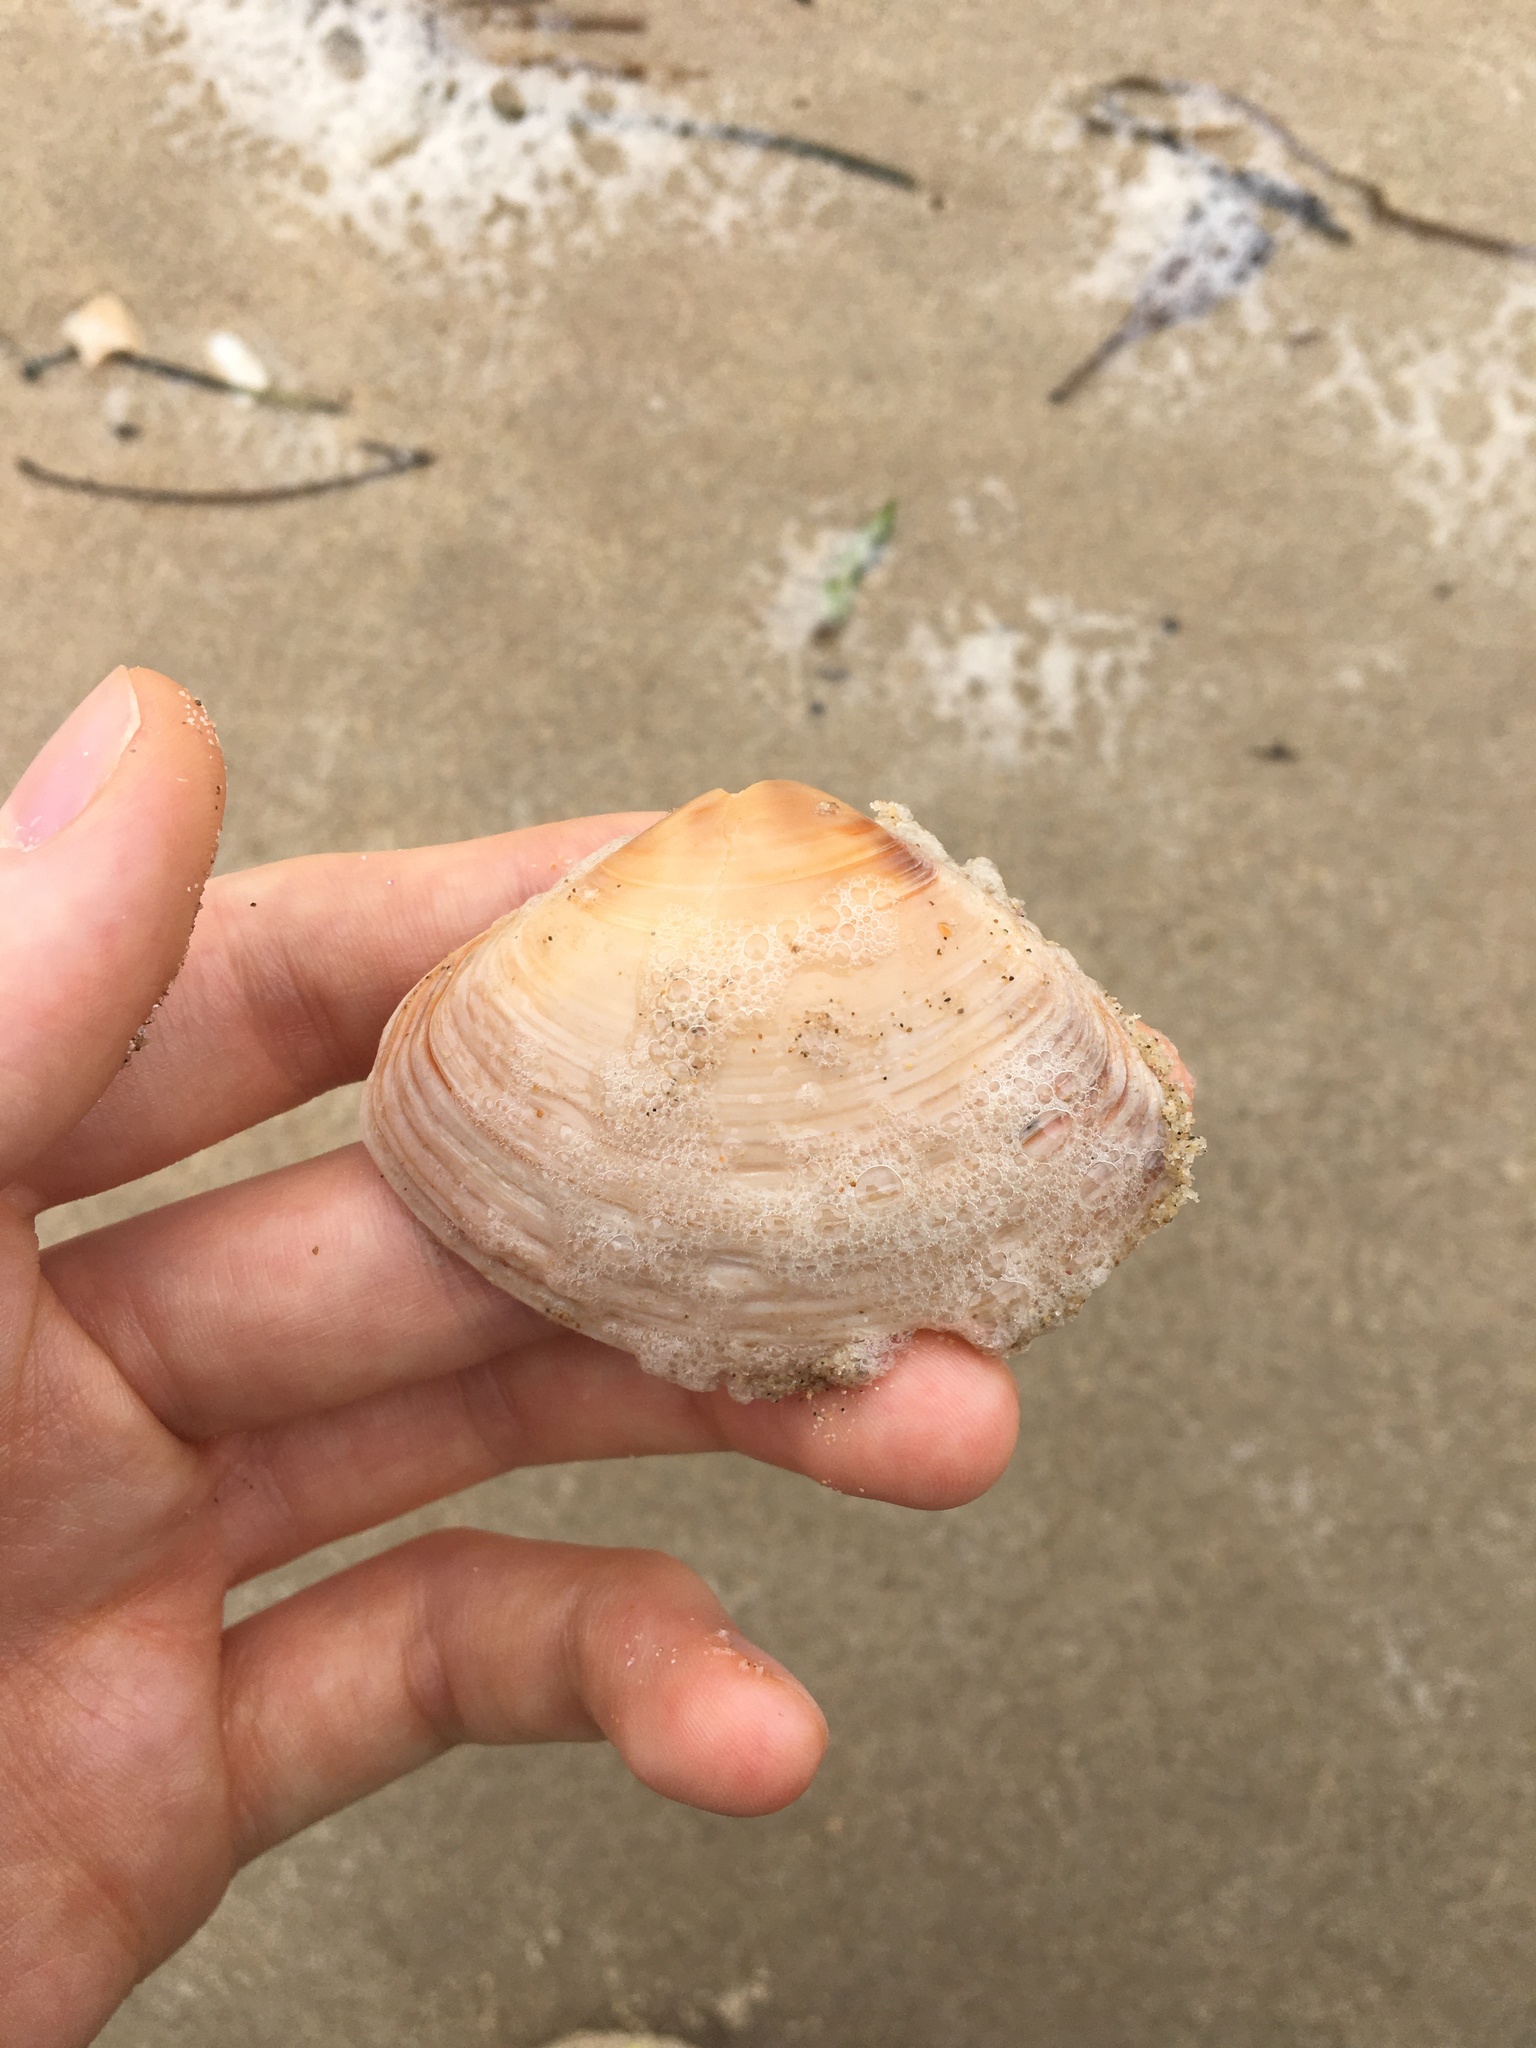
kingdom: Animalia
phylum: Mollusca
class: Bivalvia
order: Venerida
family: Mactridae
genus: Austromactra
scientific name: Austromactra rufescens
